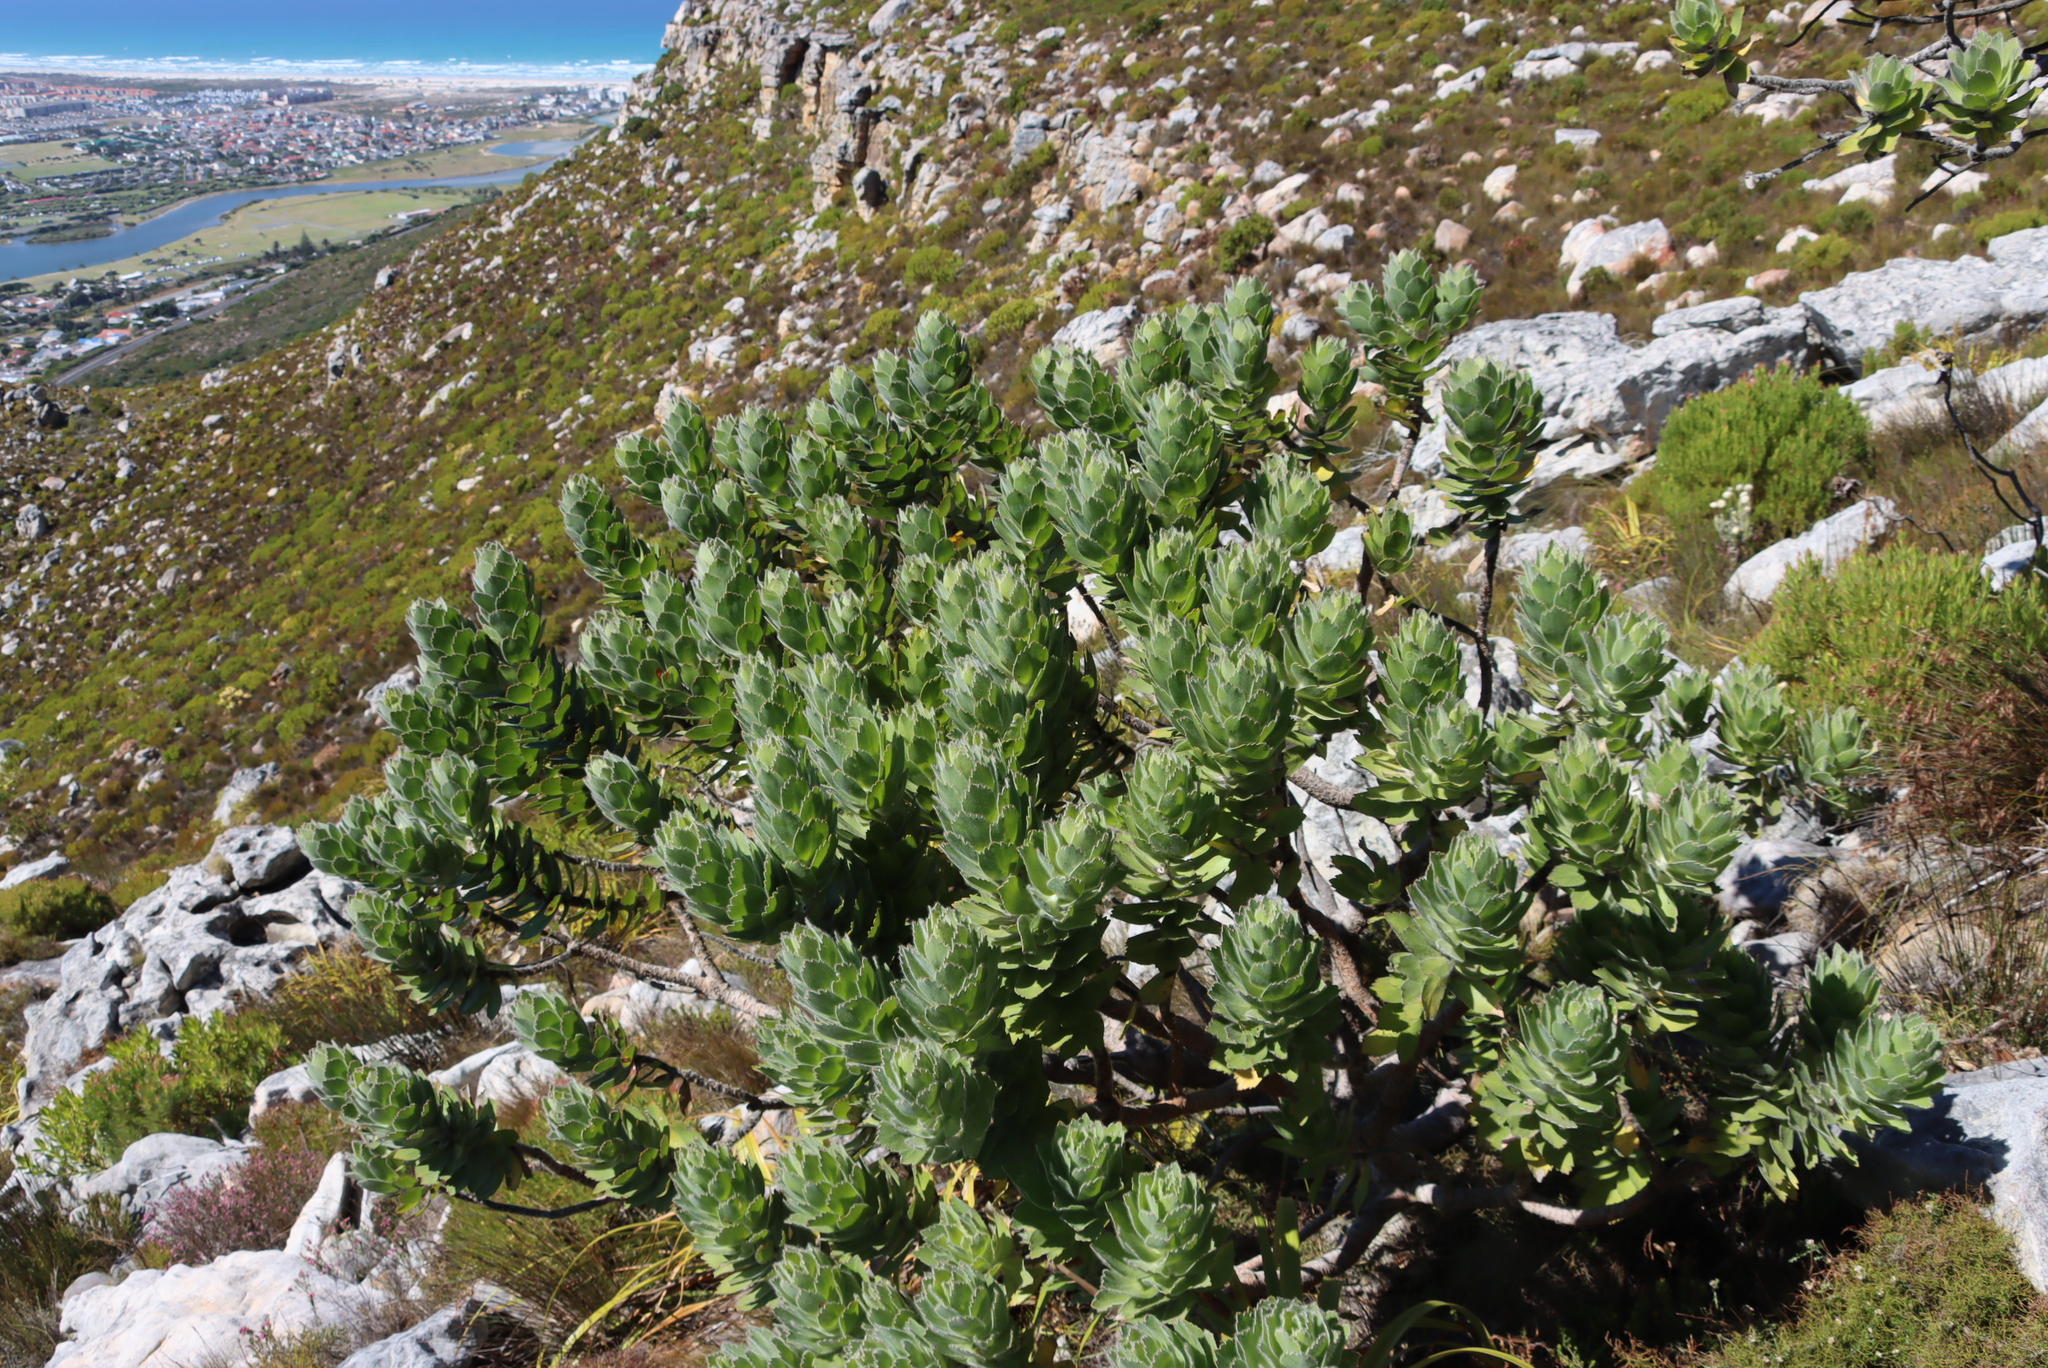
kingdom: Plantae
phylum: Tracheophyta
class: Magnoliopsida
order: Proteales
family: Proteaceae
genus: Leucospermum
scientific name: Leucospermum conocarpodendron
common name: Tree pincushion
